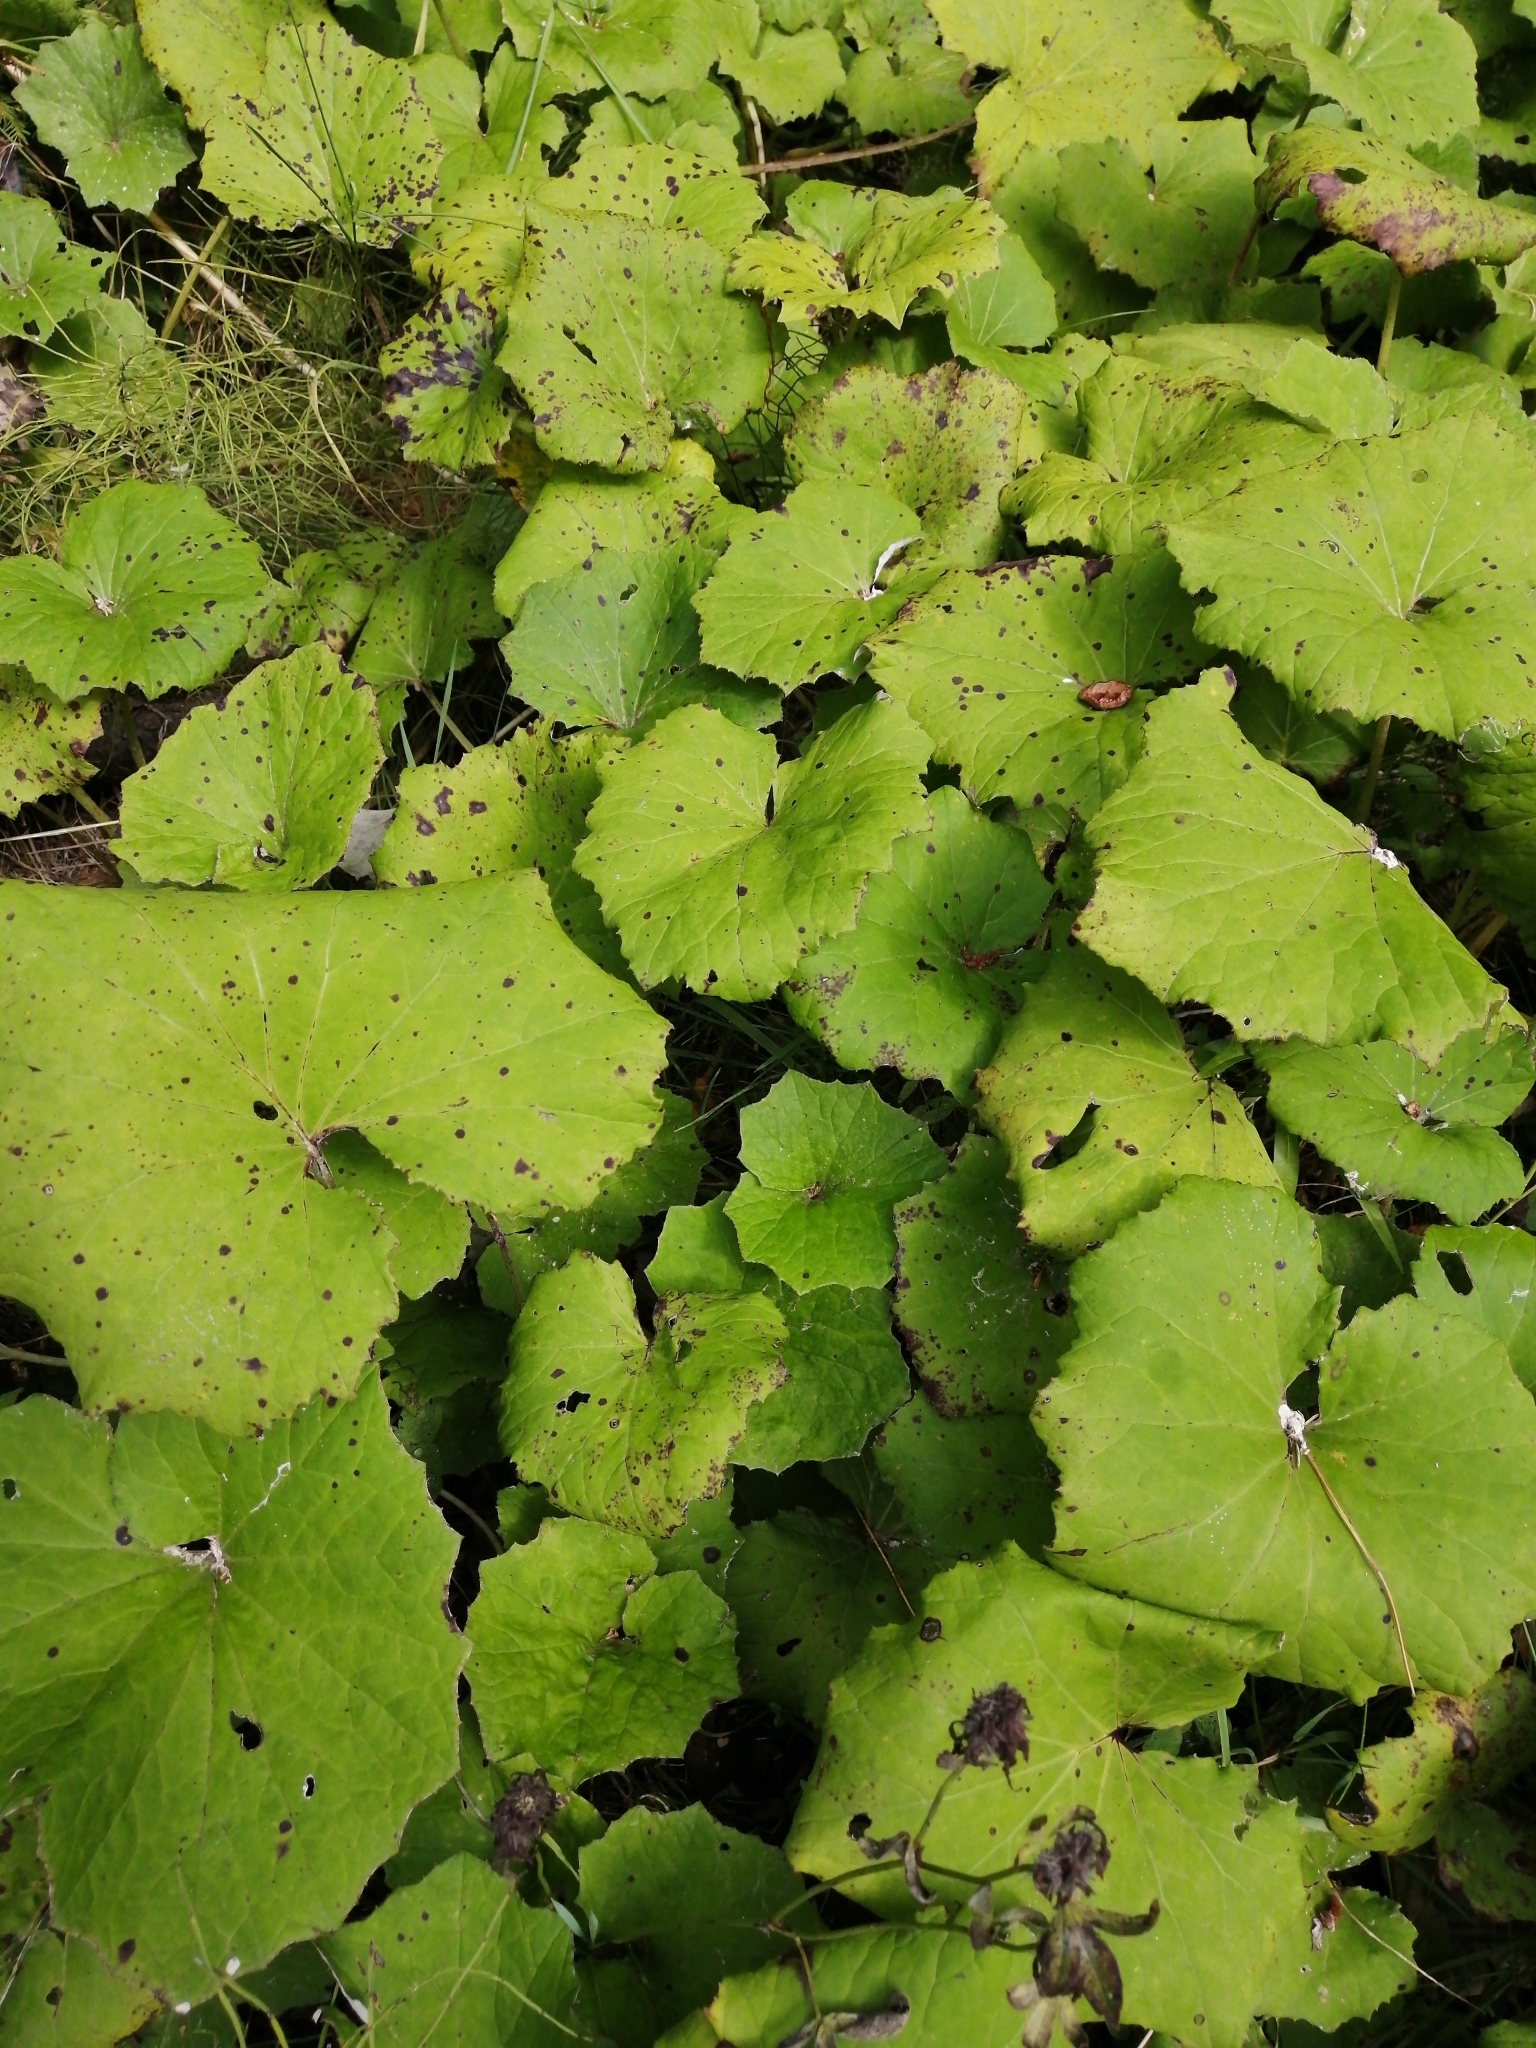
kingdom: Plantae
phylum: Tracheophyta
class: Magnoliopsida
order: Asterales
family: Asteraceae
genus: Tussilago
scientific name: Tussilago farfara
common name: Coltsfoot
